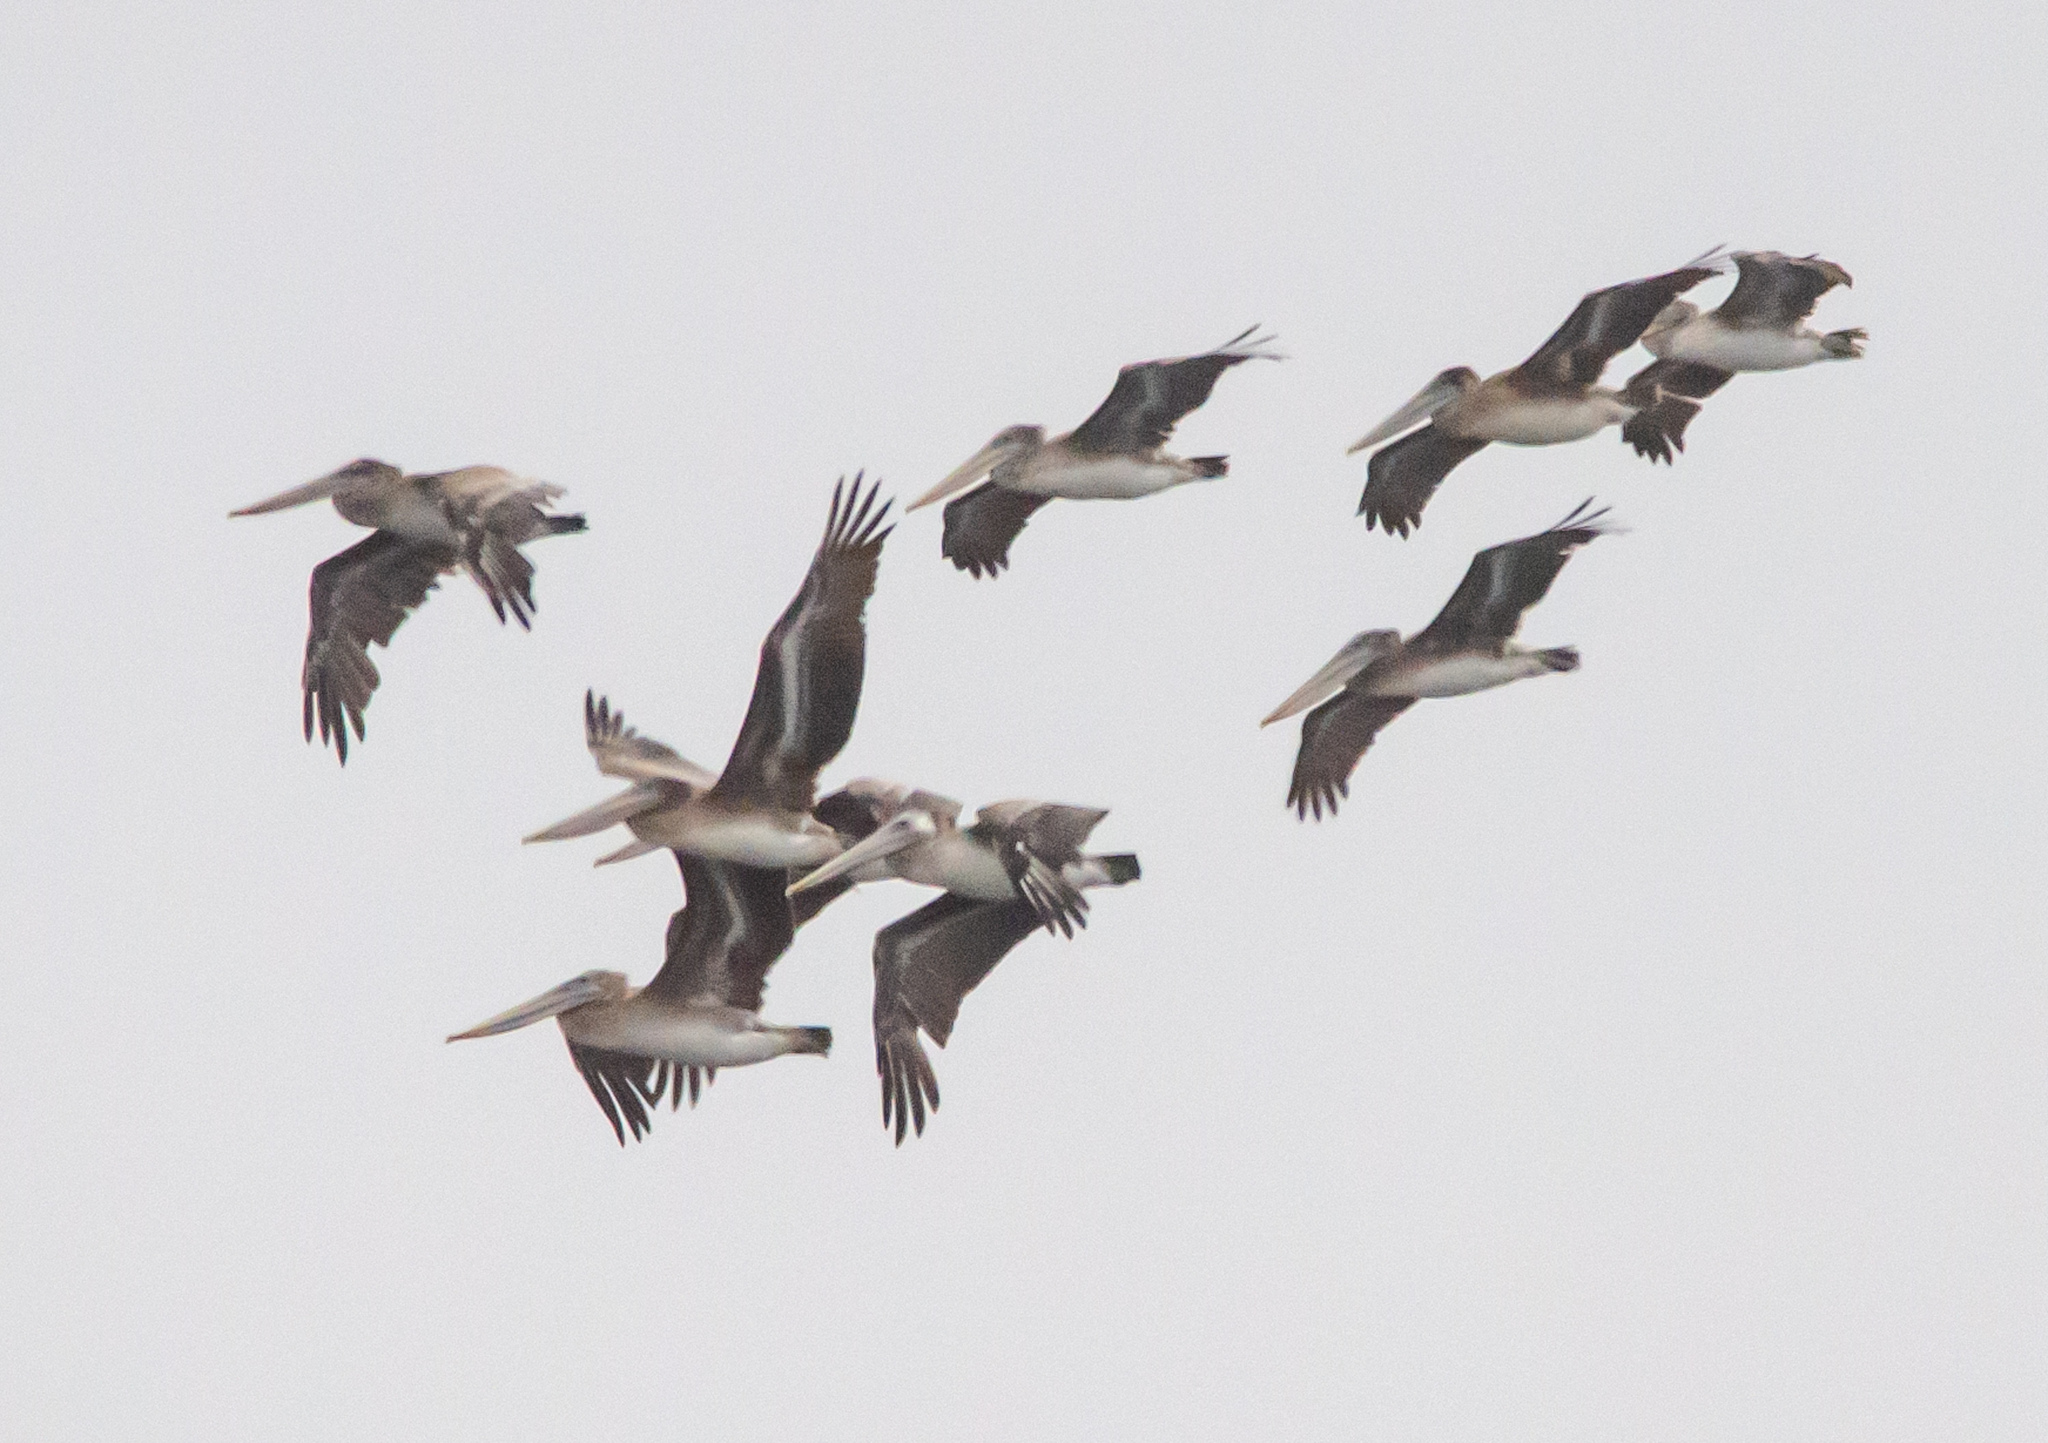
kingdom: Animalia
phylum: Chordata
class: Aves
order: Pelecaniformes
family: Pelecanidae
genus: Pelecanus
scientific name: Pelecanus occidentalis
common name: Brown pelican
